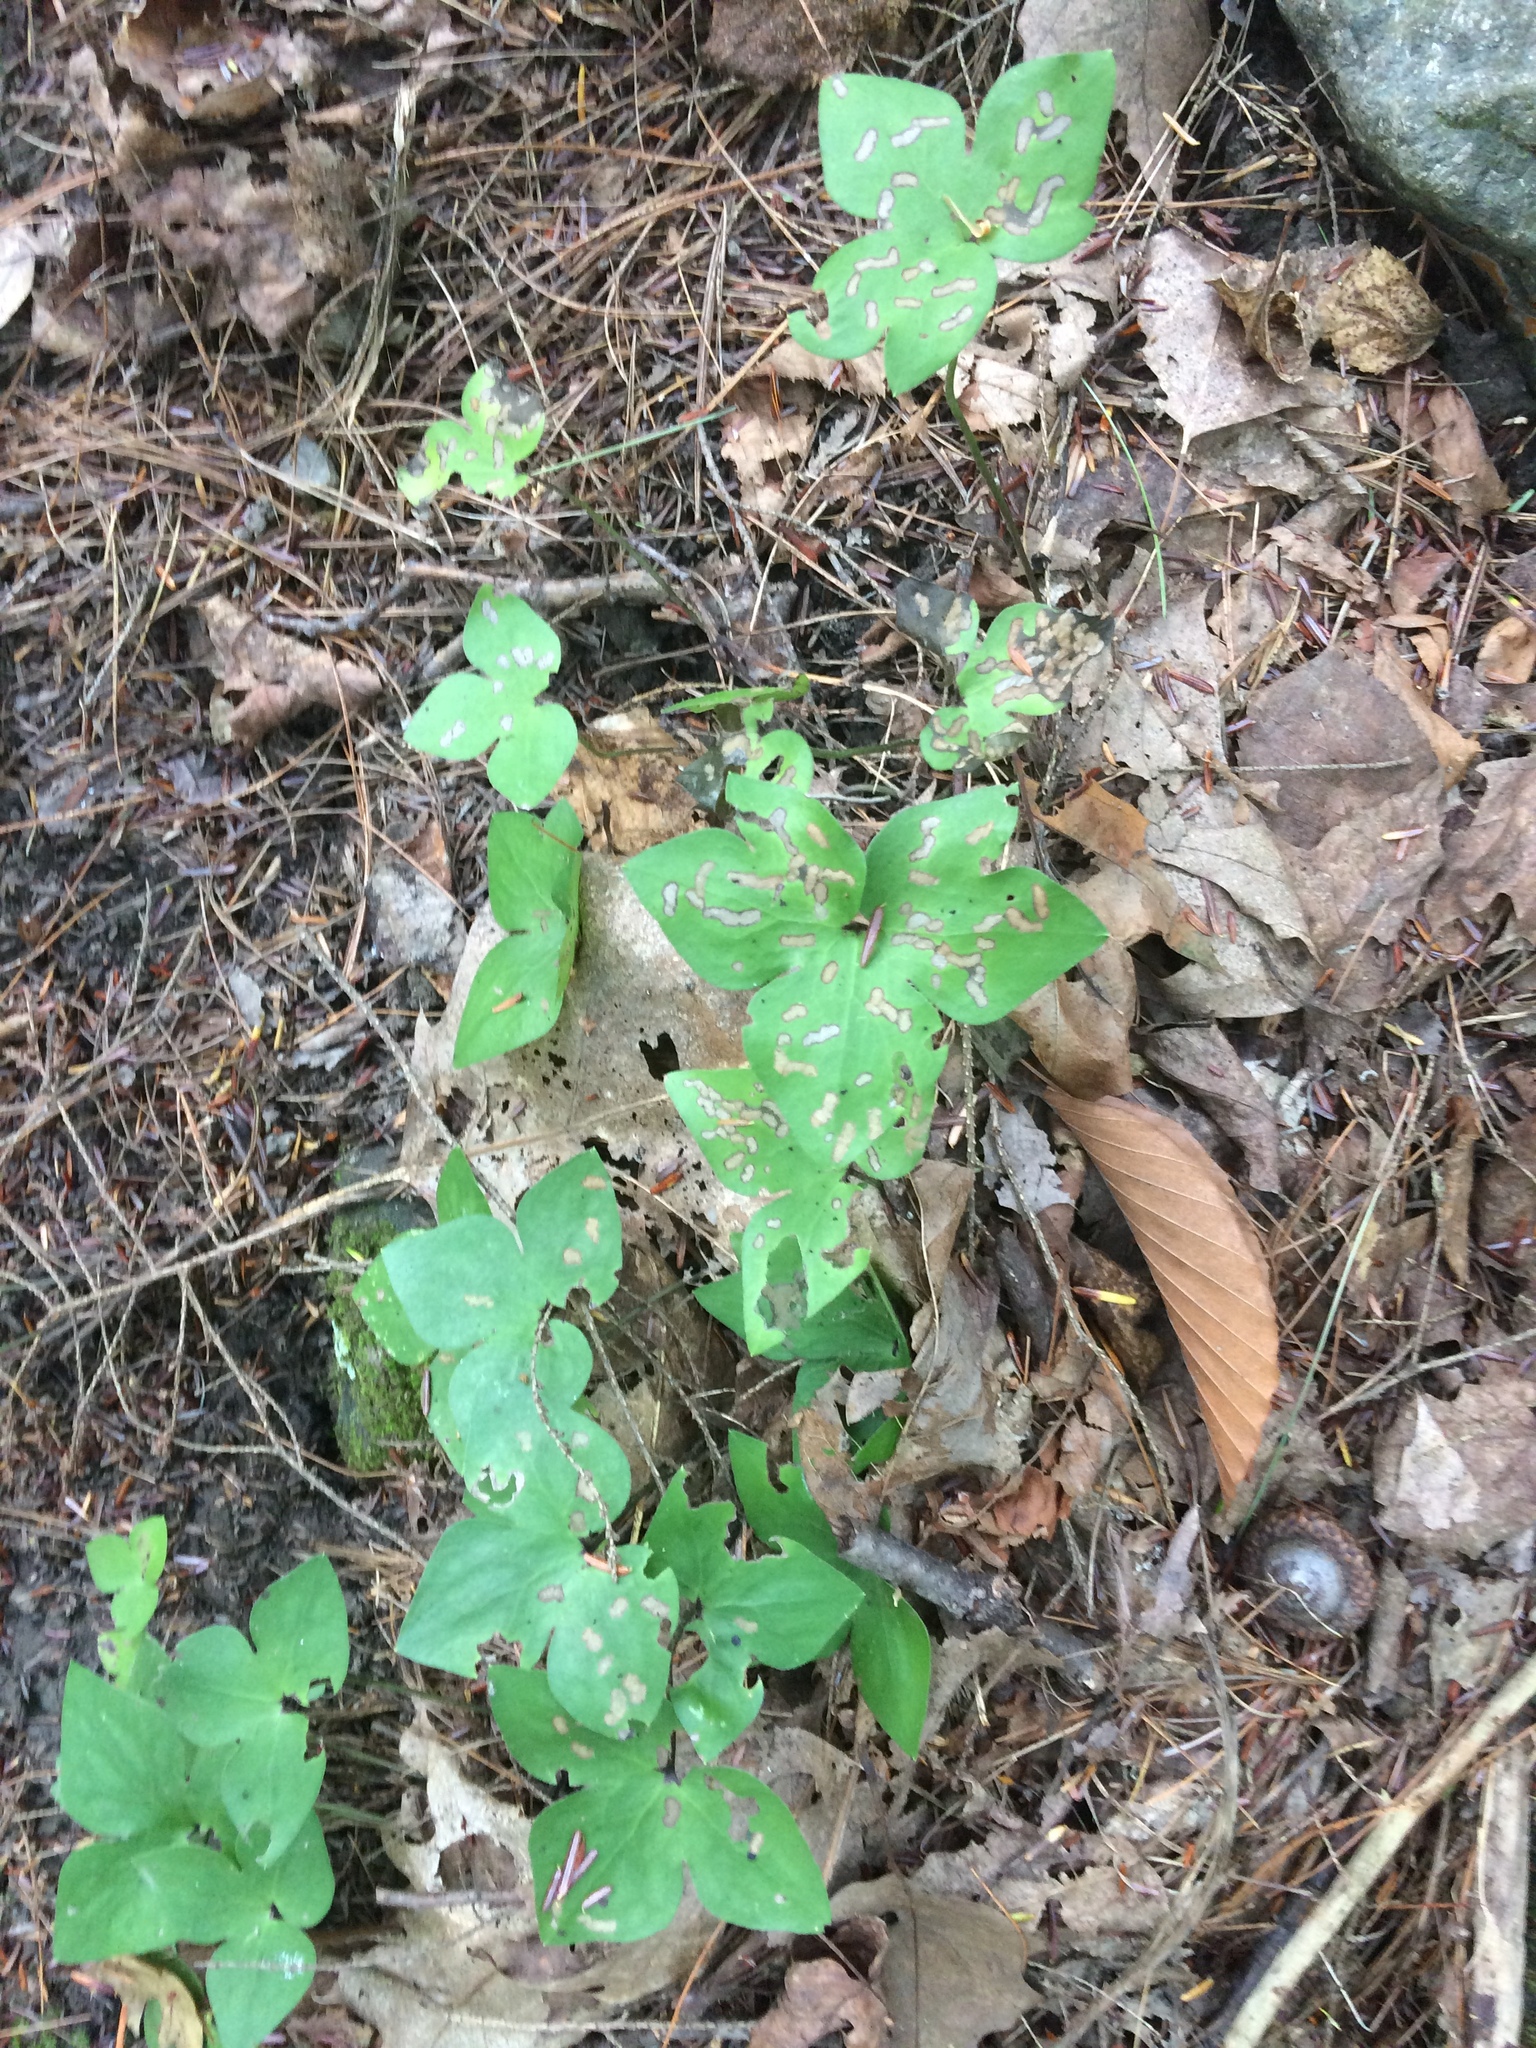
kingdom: Plantae
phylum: Tracheophyta
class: Magnoliopsida
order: Ranunculales
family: Ranunculaceae
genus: Hepatica
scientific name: Hepatica acutiloba
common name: Sharp-lobed hepatica
